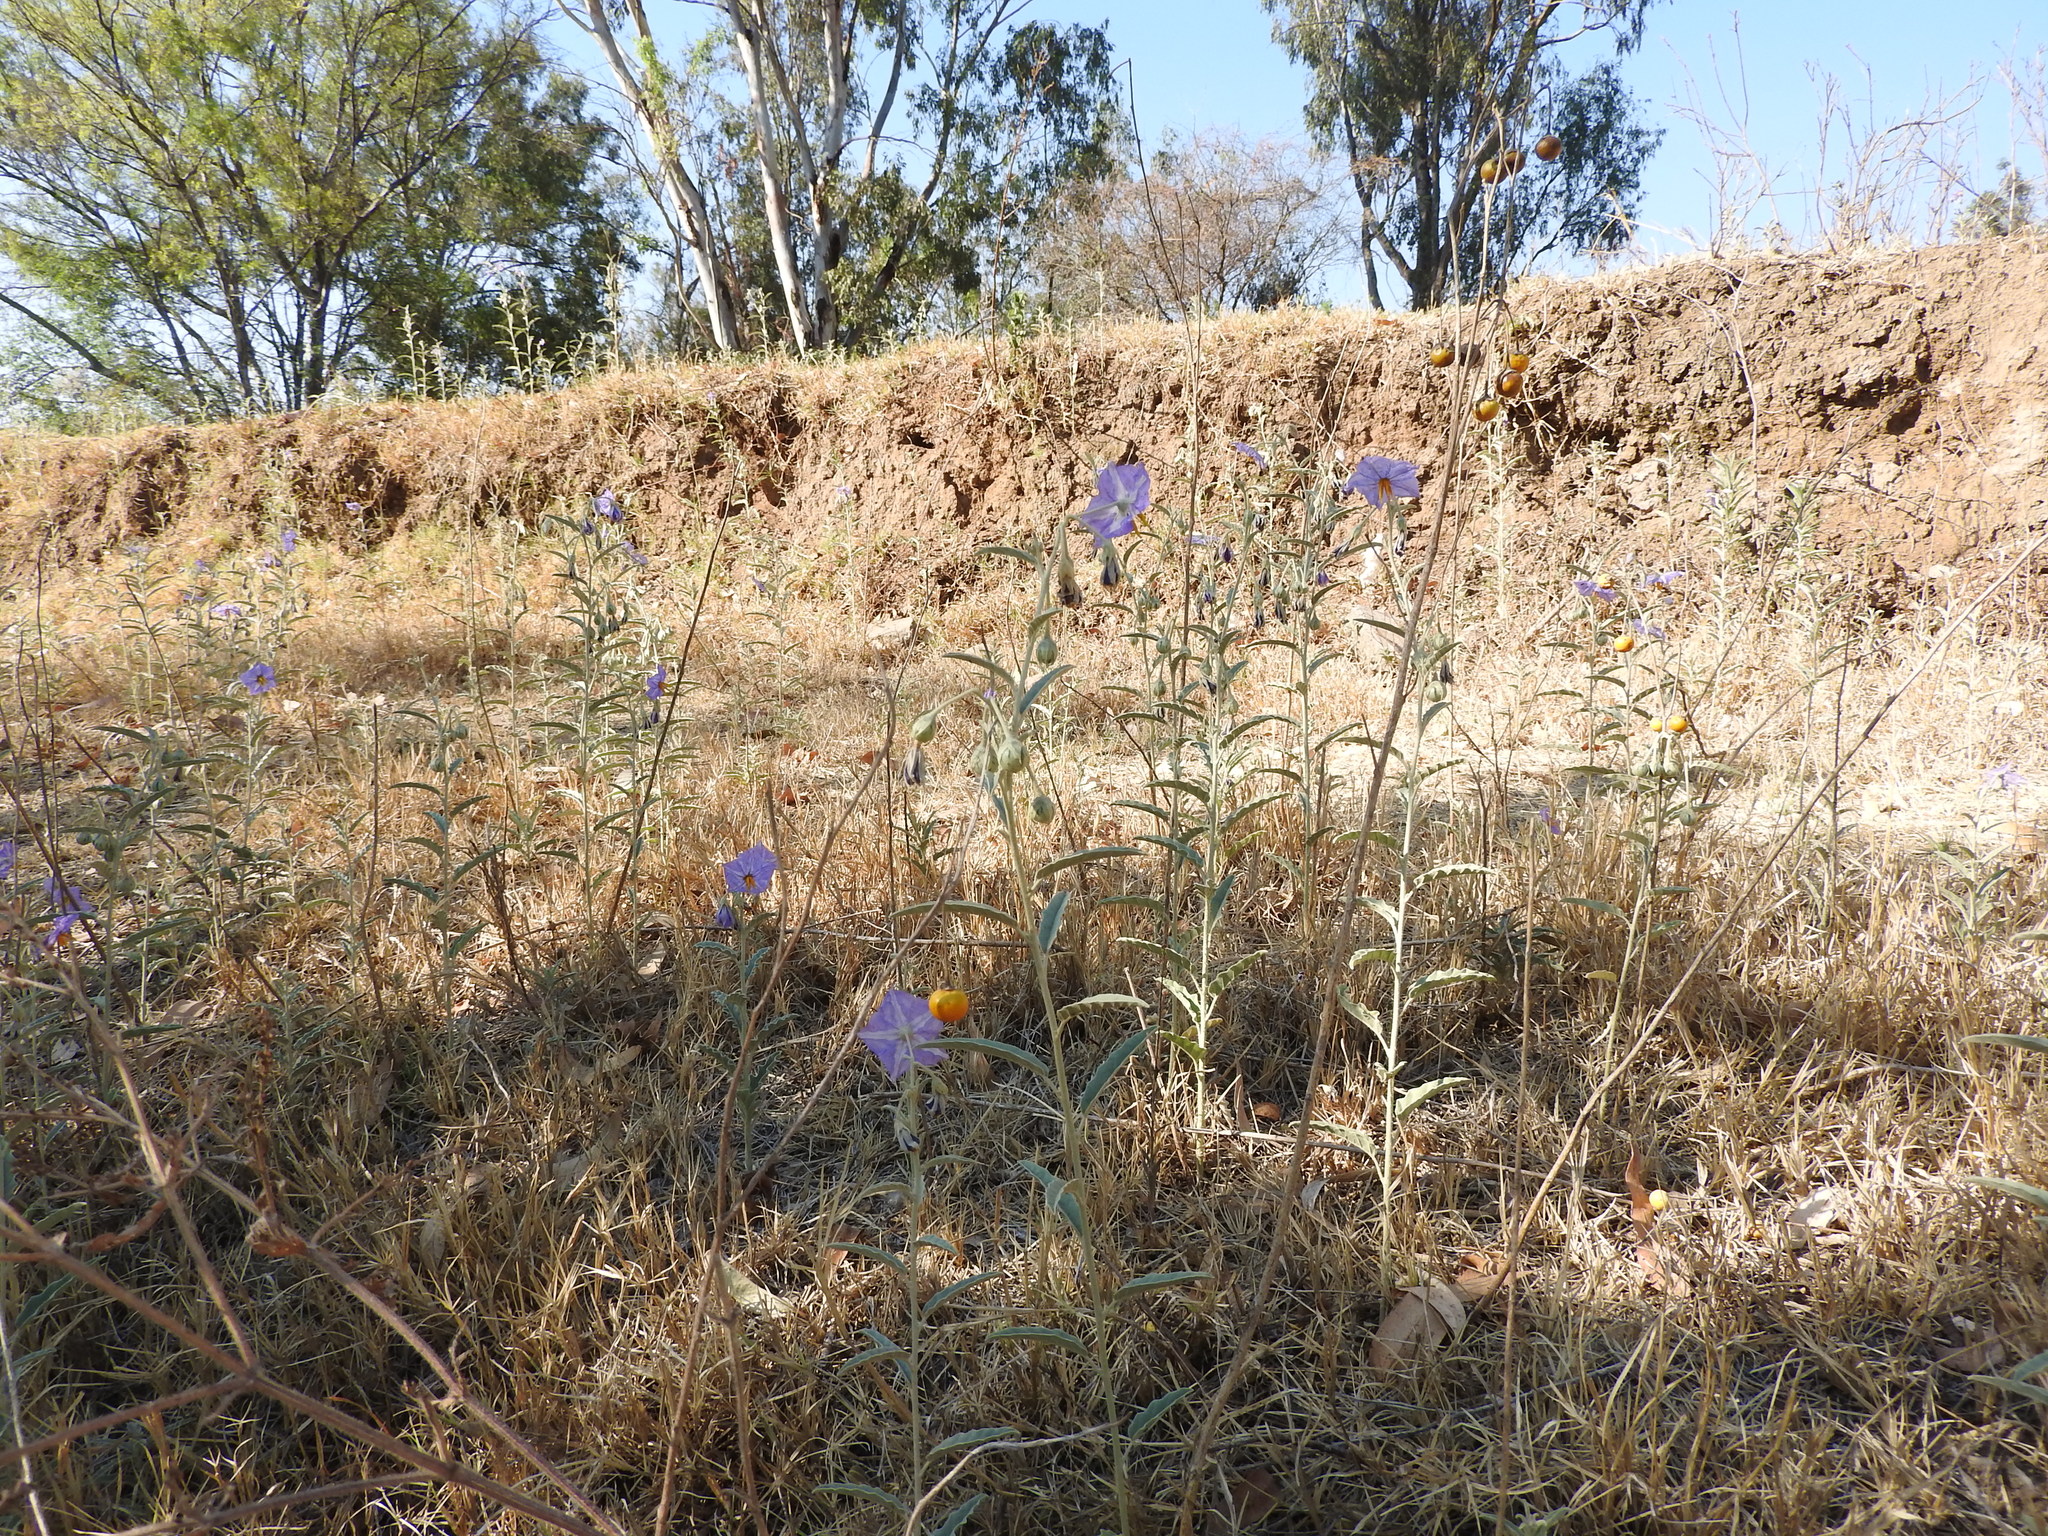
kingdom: Plantae
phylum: Tracheophyta
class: Magnoliopsida
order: Solanales
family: Solanaceae
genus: Solanum
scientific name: Solanum elaeagnifolium
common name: Silverleaf nightshade
